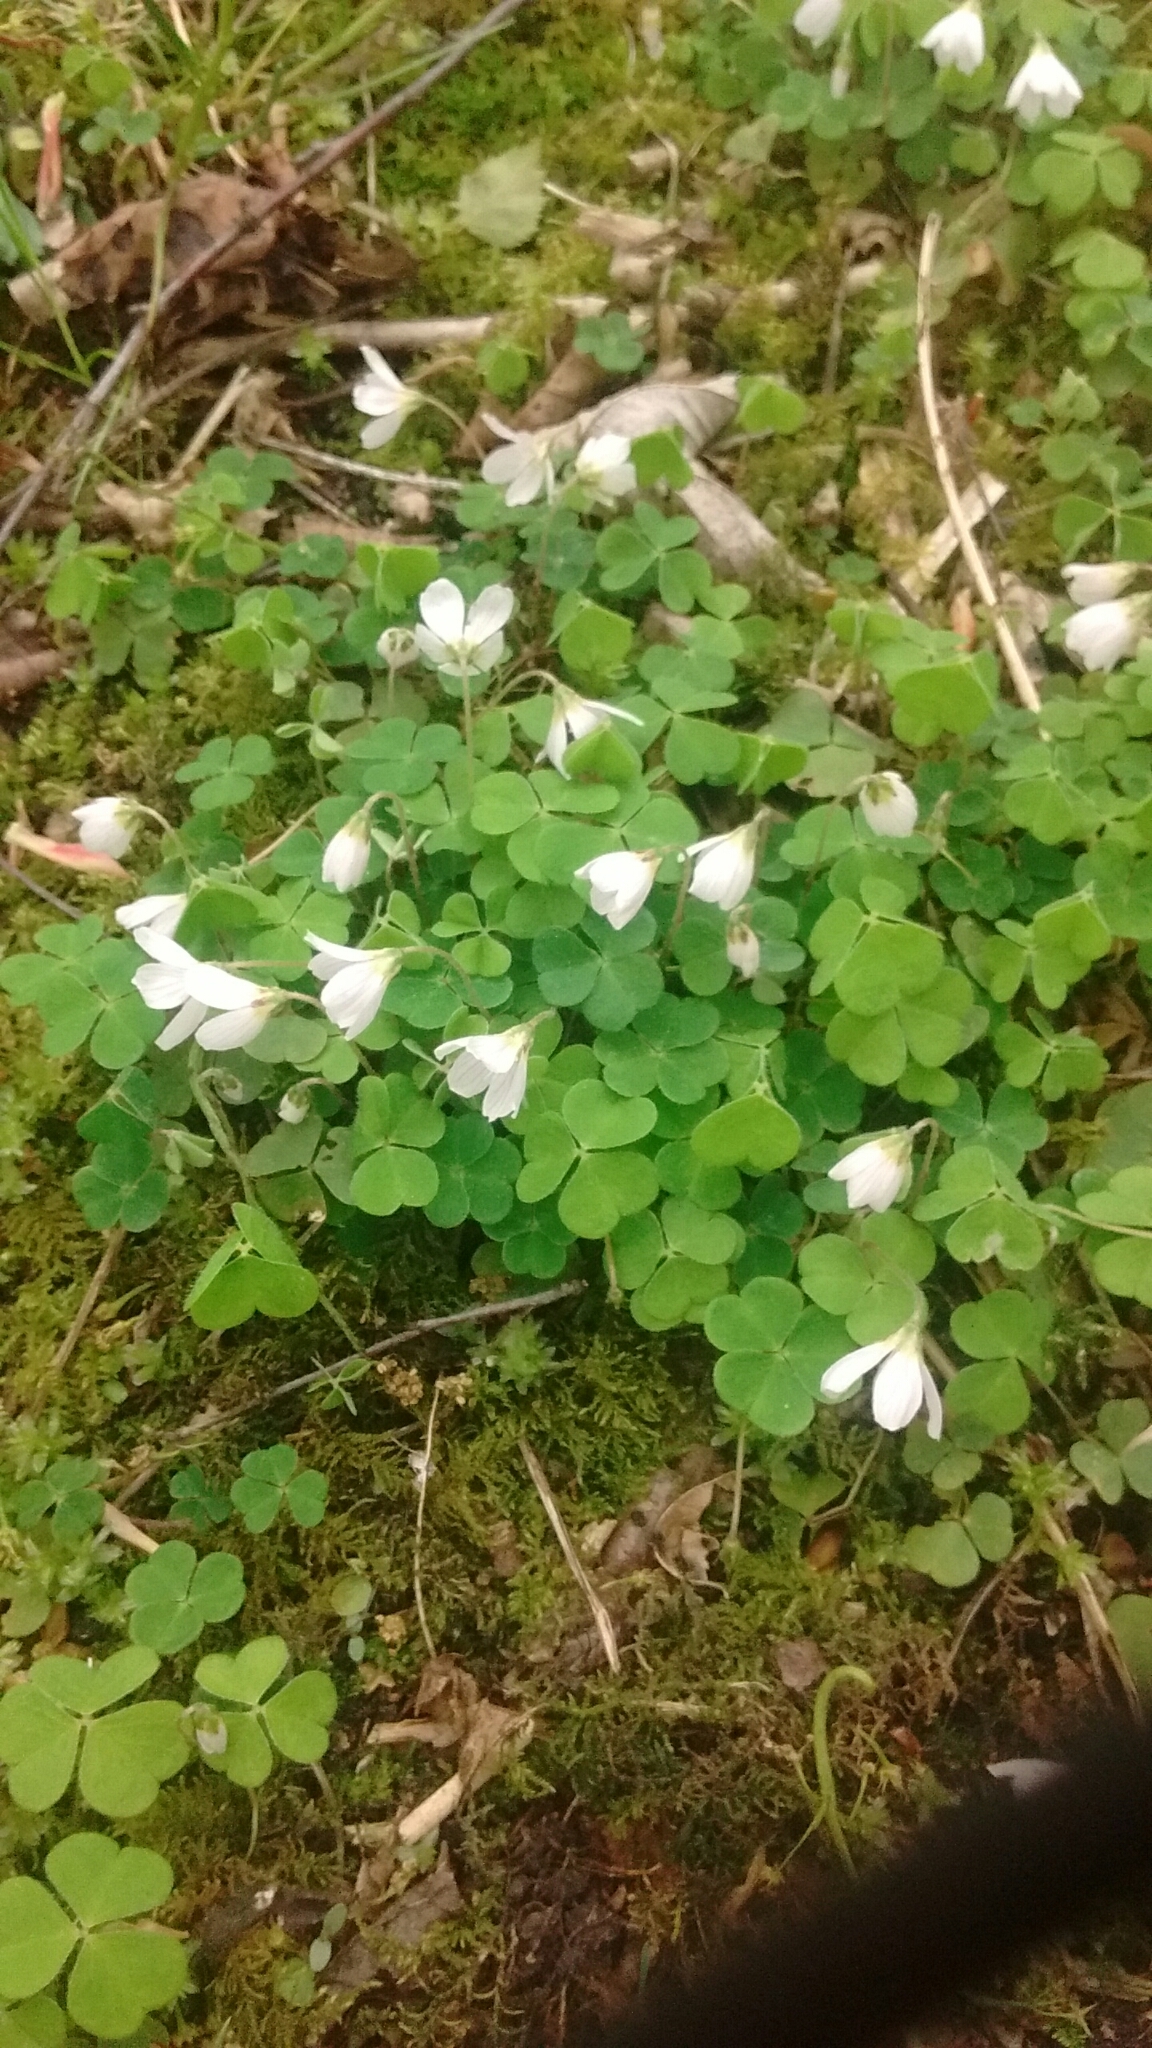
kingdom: Plantae
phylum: Tracheophyta
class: Magnoliopsida
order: Oxalidales
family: Oxalidaceae
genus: Oxalis
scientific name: Oxalis acetosella
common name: Wood-sorrel
